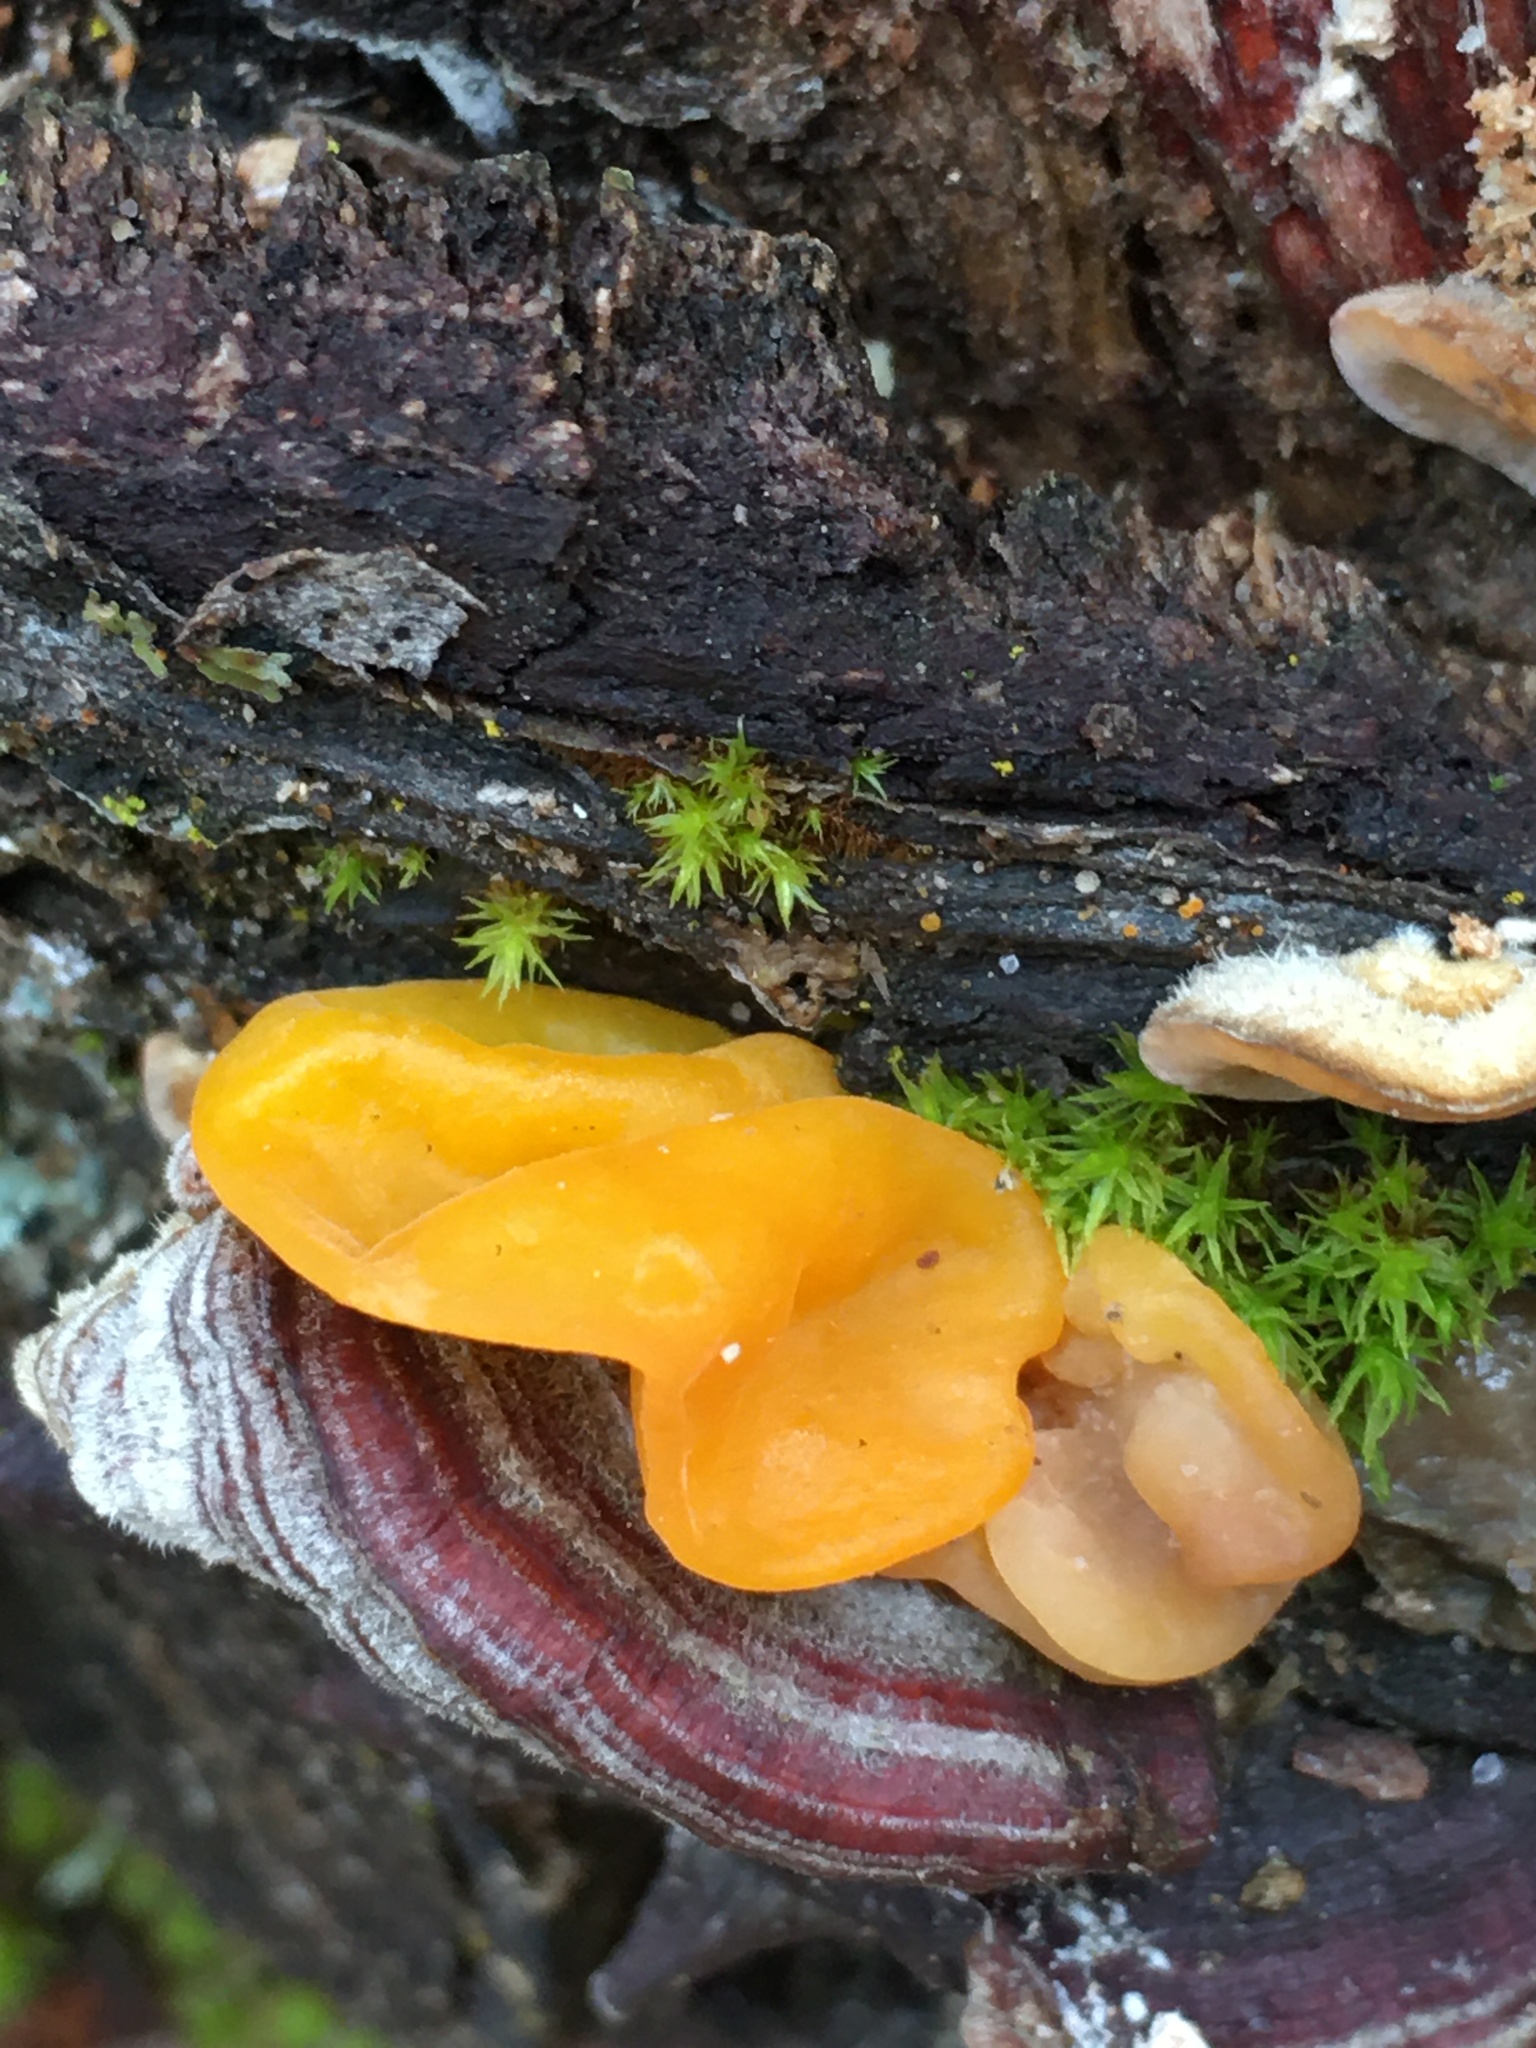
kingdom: Fungi
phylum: Basidiomycota
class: Tremellomycetes
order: Tremellales
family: Naemateliaceae
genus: Naematelia
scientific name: Naematelia aurantia
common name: Golden ear
